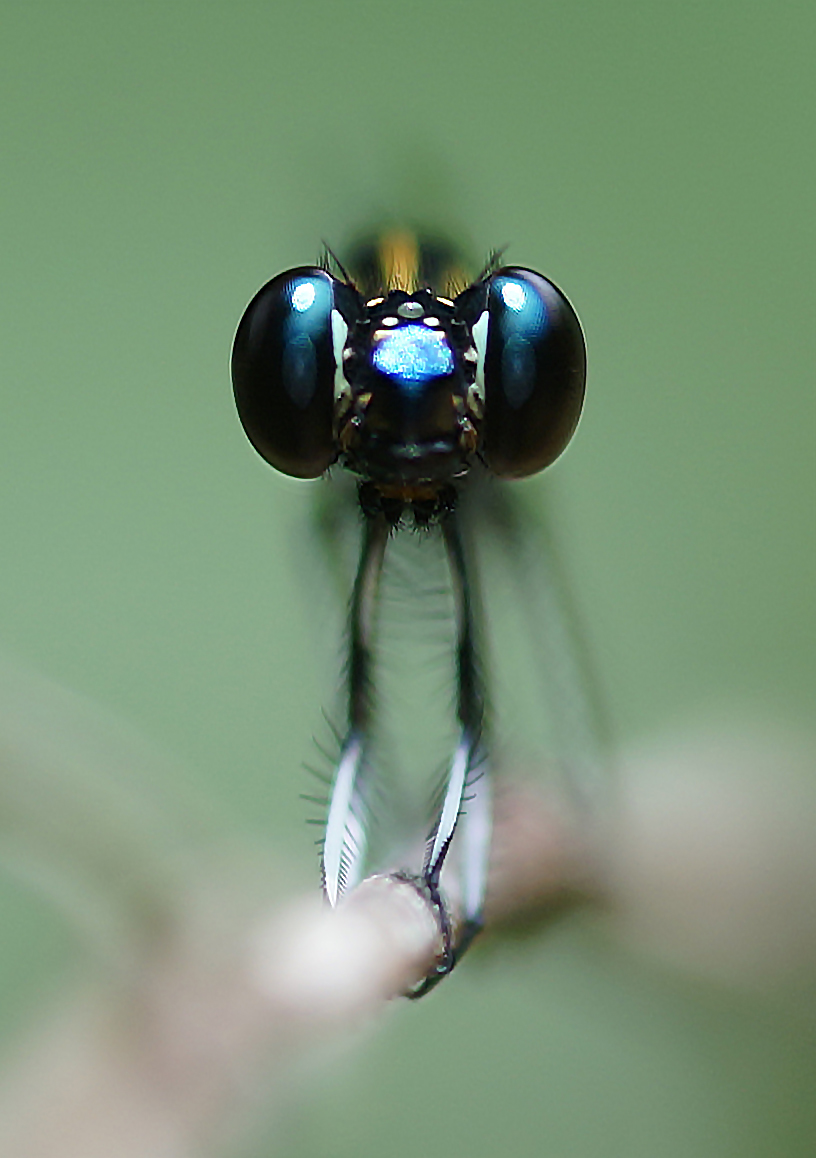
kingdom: Animalia
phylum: Arthropoda
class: Insecta
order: Odonata
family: Chlorocyphidae
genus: Libellago
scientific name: Libellago lineata
